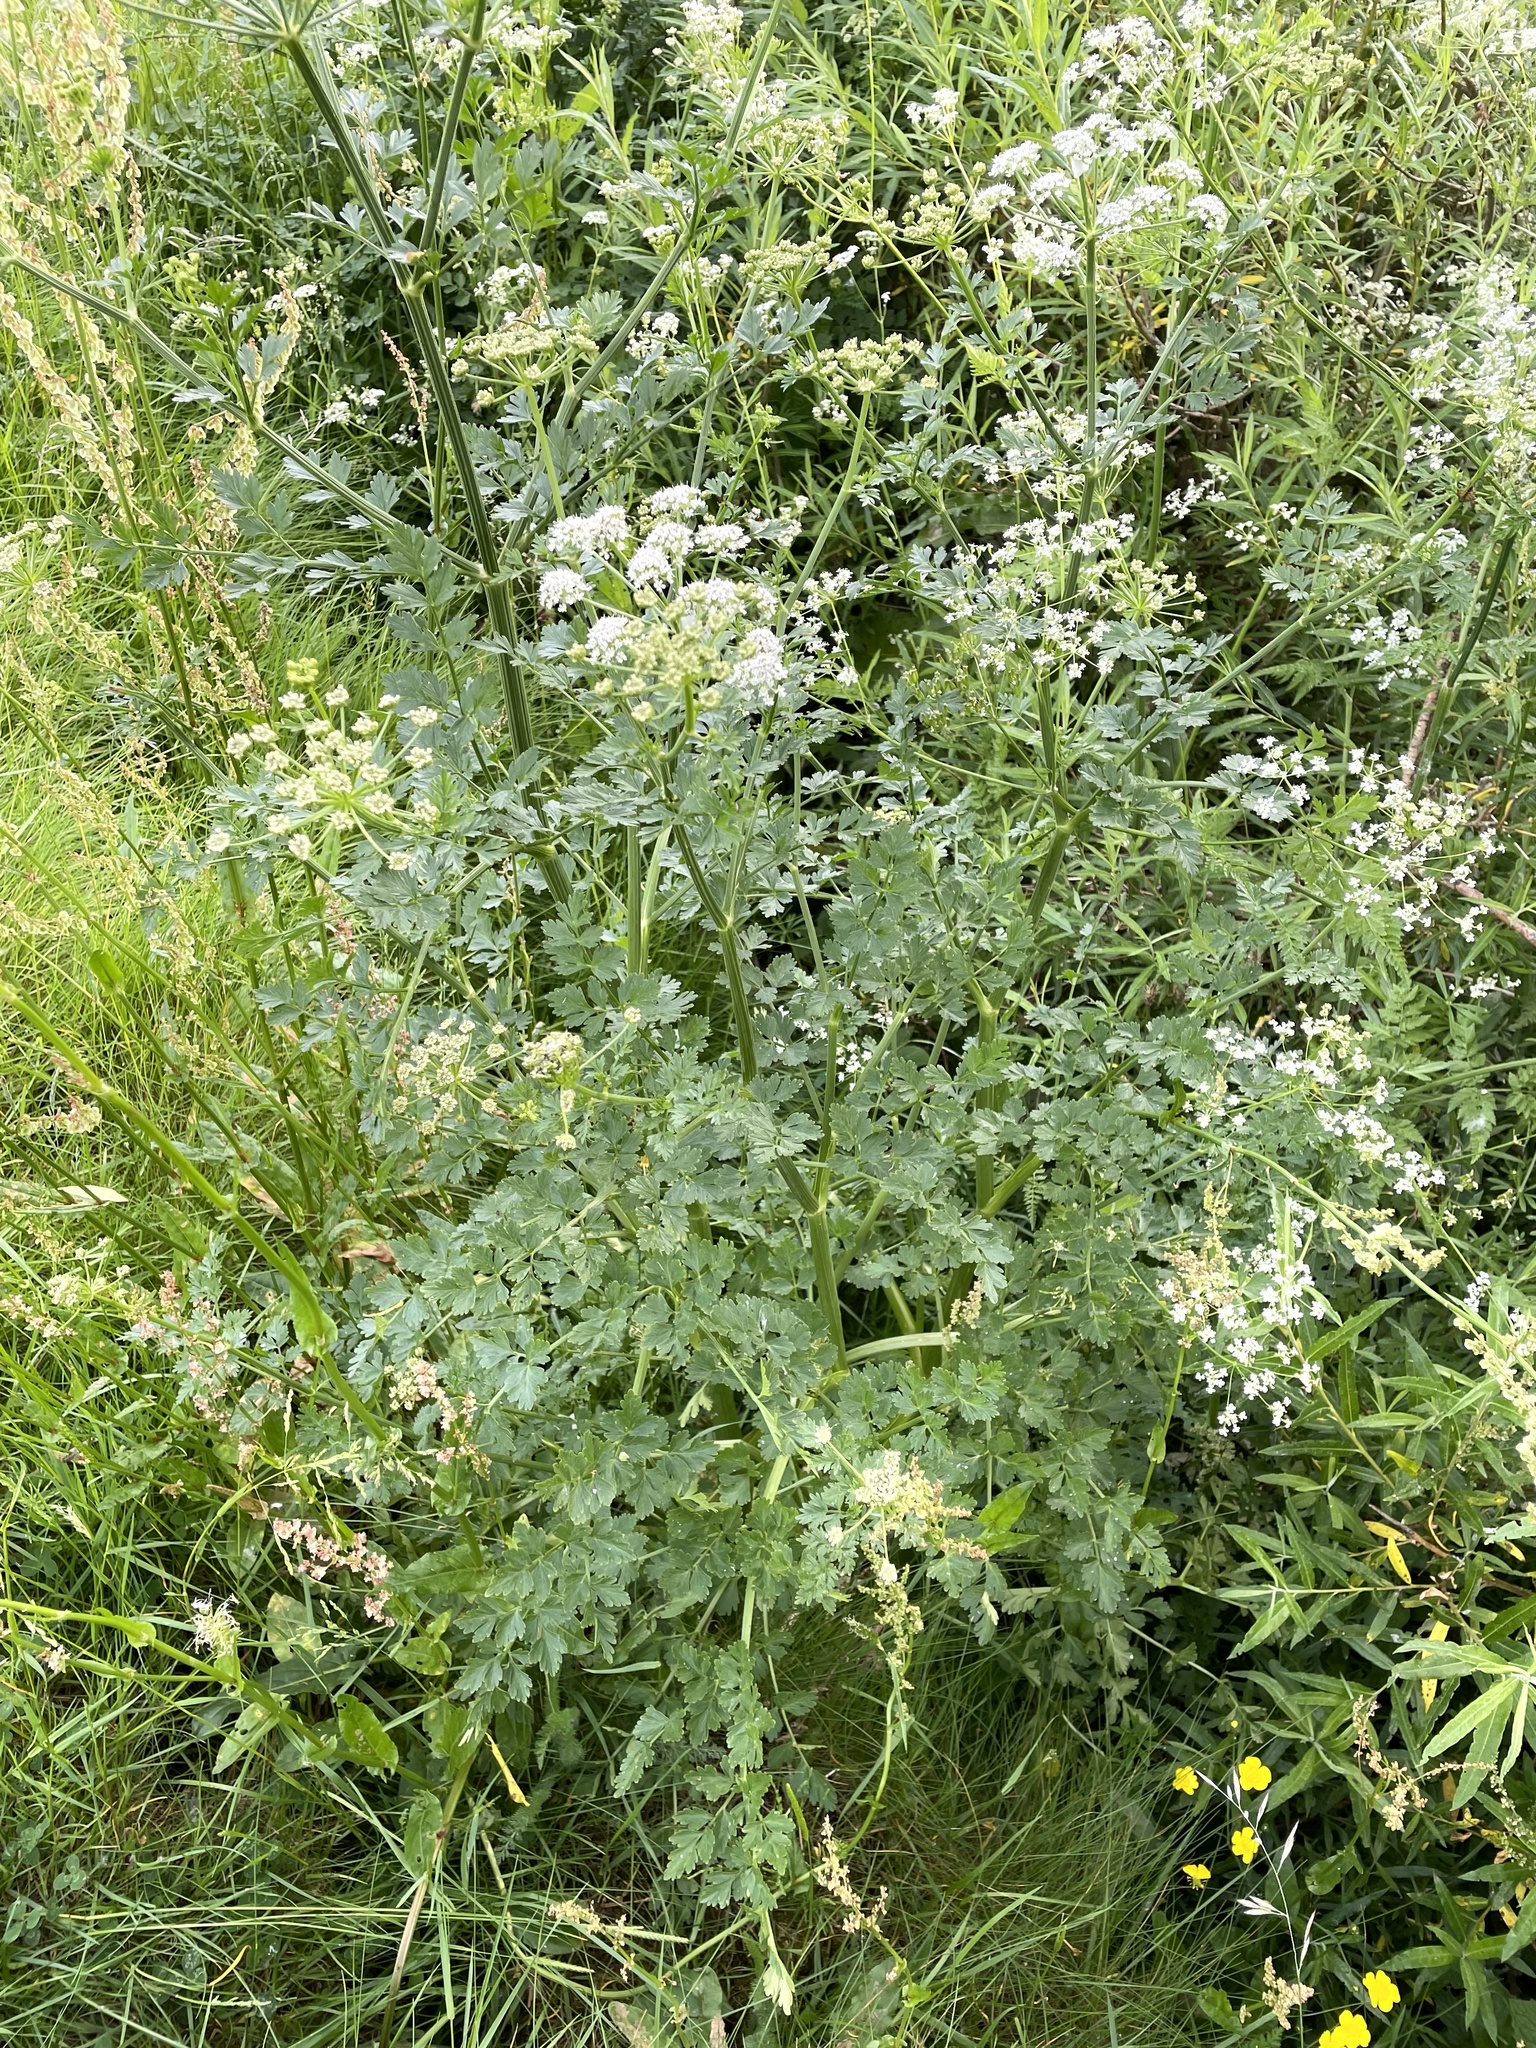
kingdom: Plantae
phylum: Tracheophyta
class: Magnoliopsida
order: Apiales
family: Apiaceae
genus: Oenanthe
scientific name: Oenanthe crocata
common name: Hemlock water-dropwort
